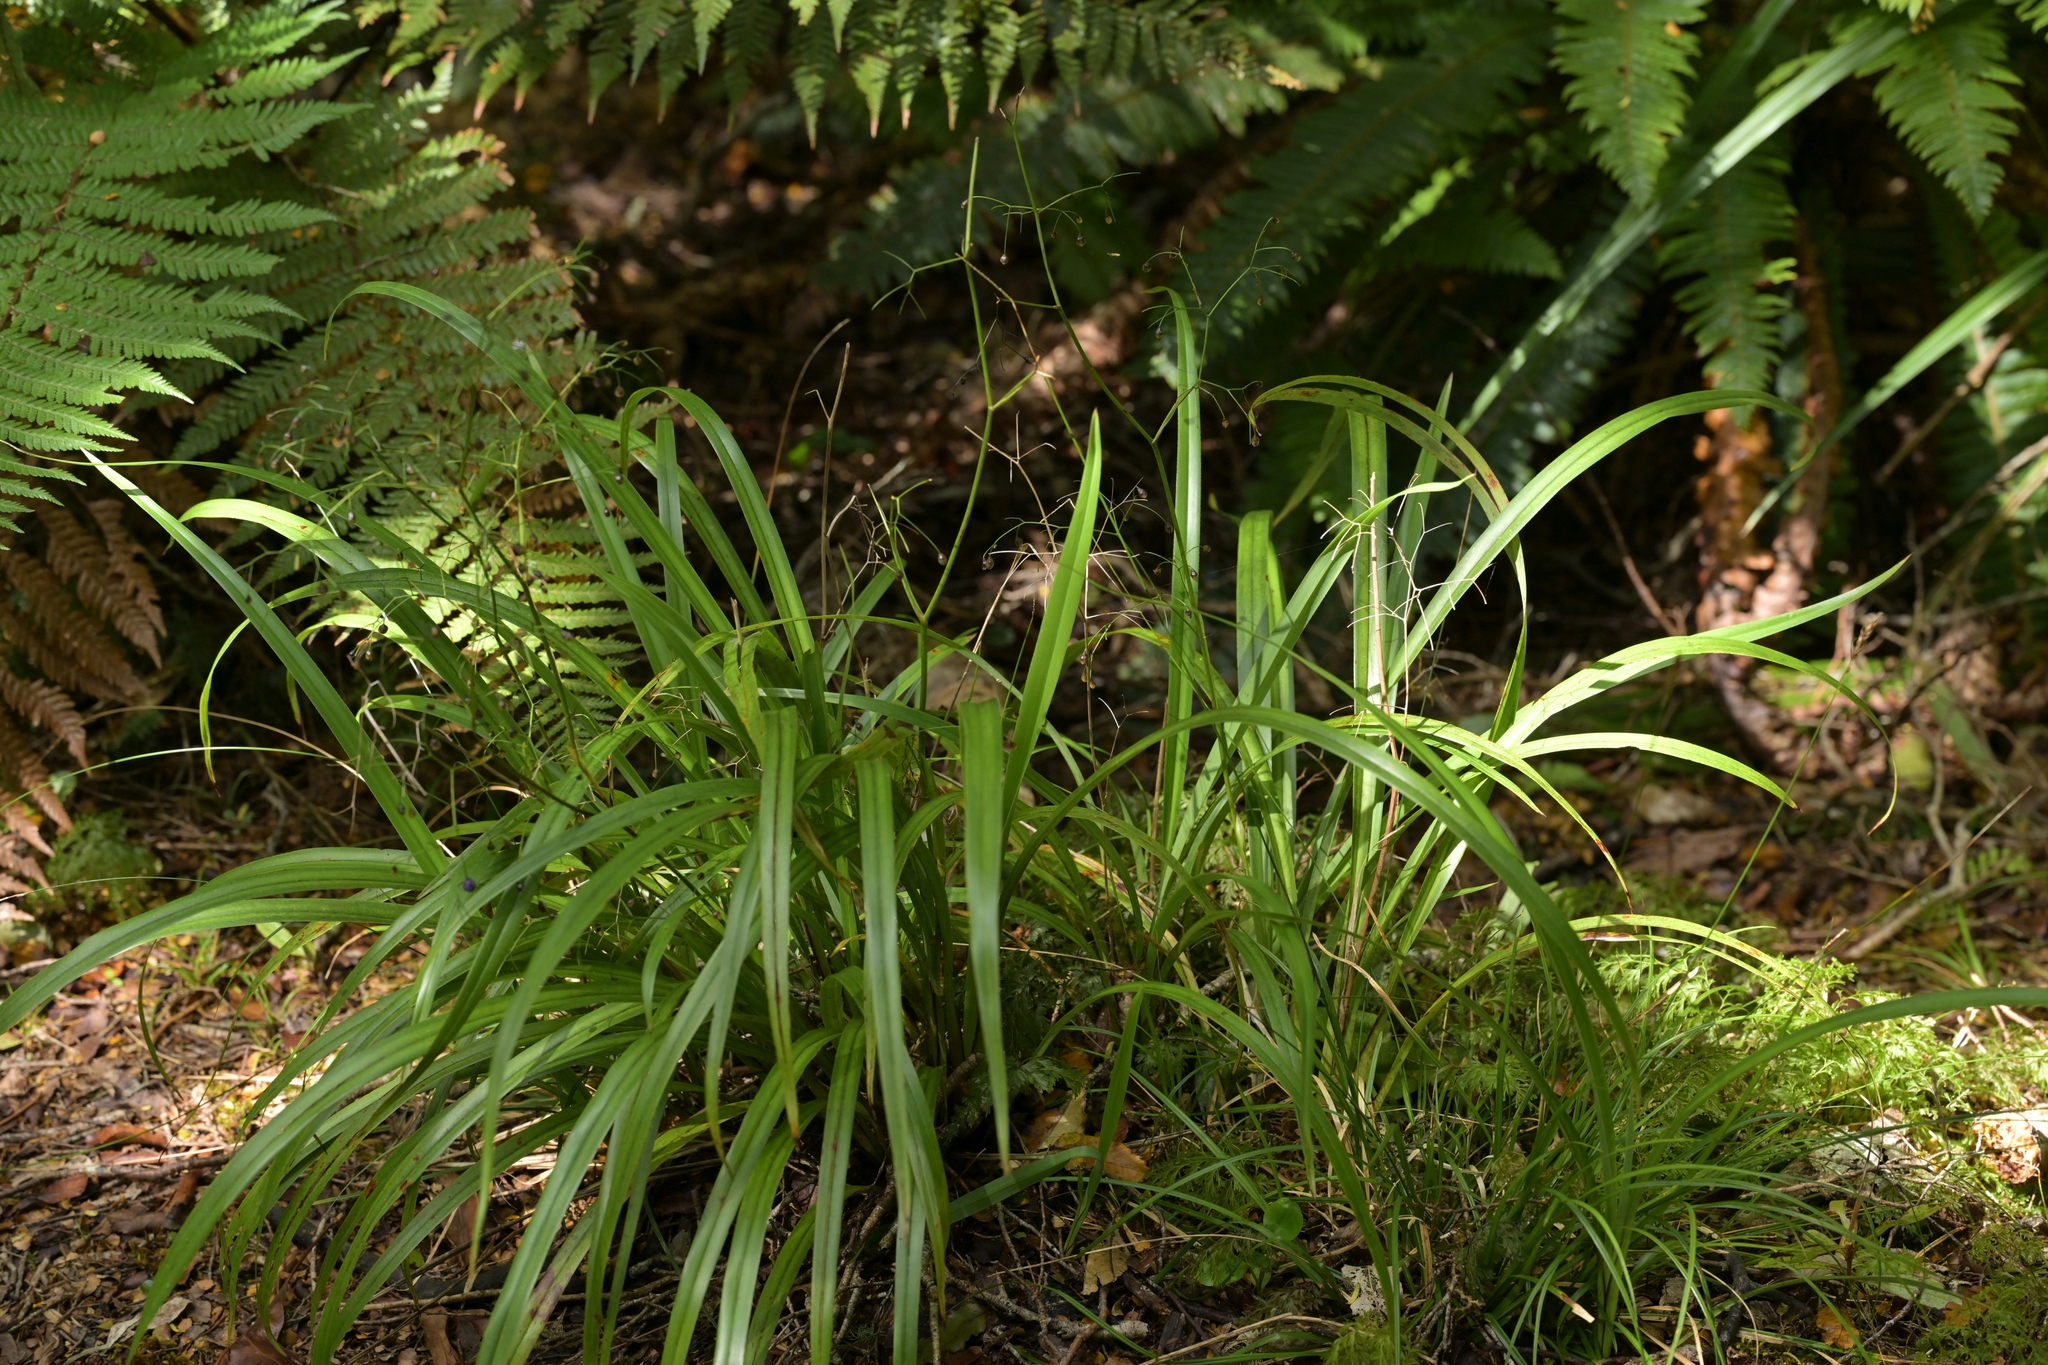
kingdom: Plantae
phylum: Tracheophyta
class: Liliopsida
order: Asparagales
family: Asphodelaceae
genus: Dianella
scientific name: Dianella nigra
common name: New zealand-blueberry
